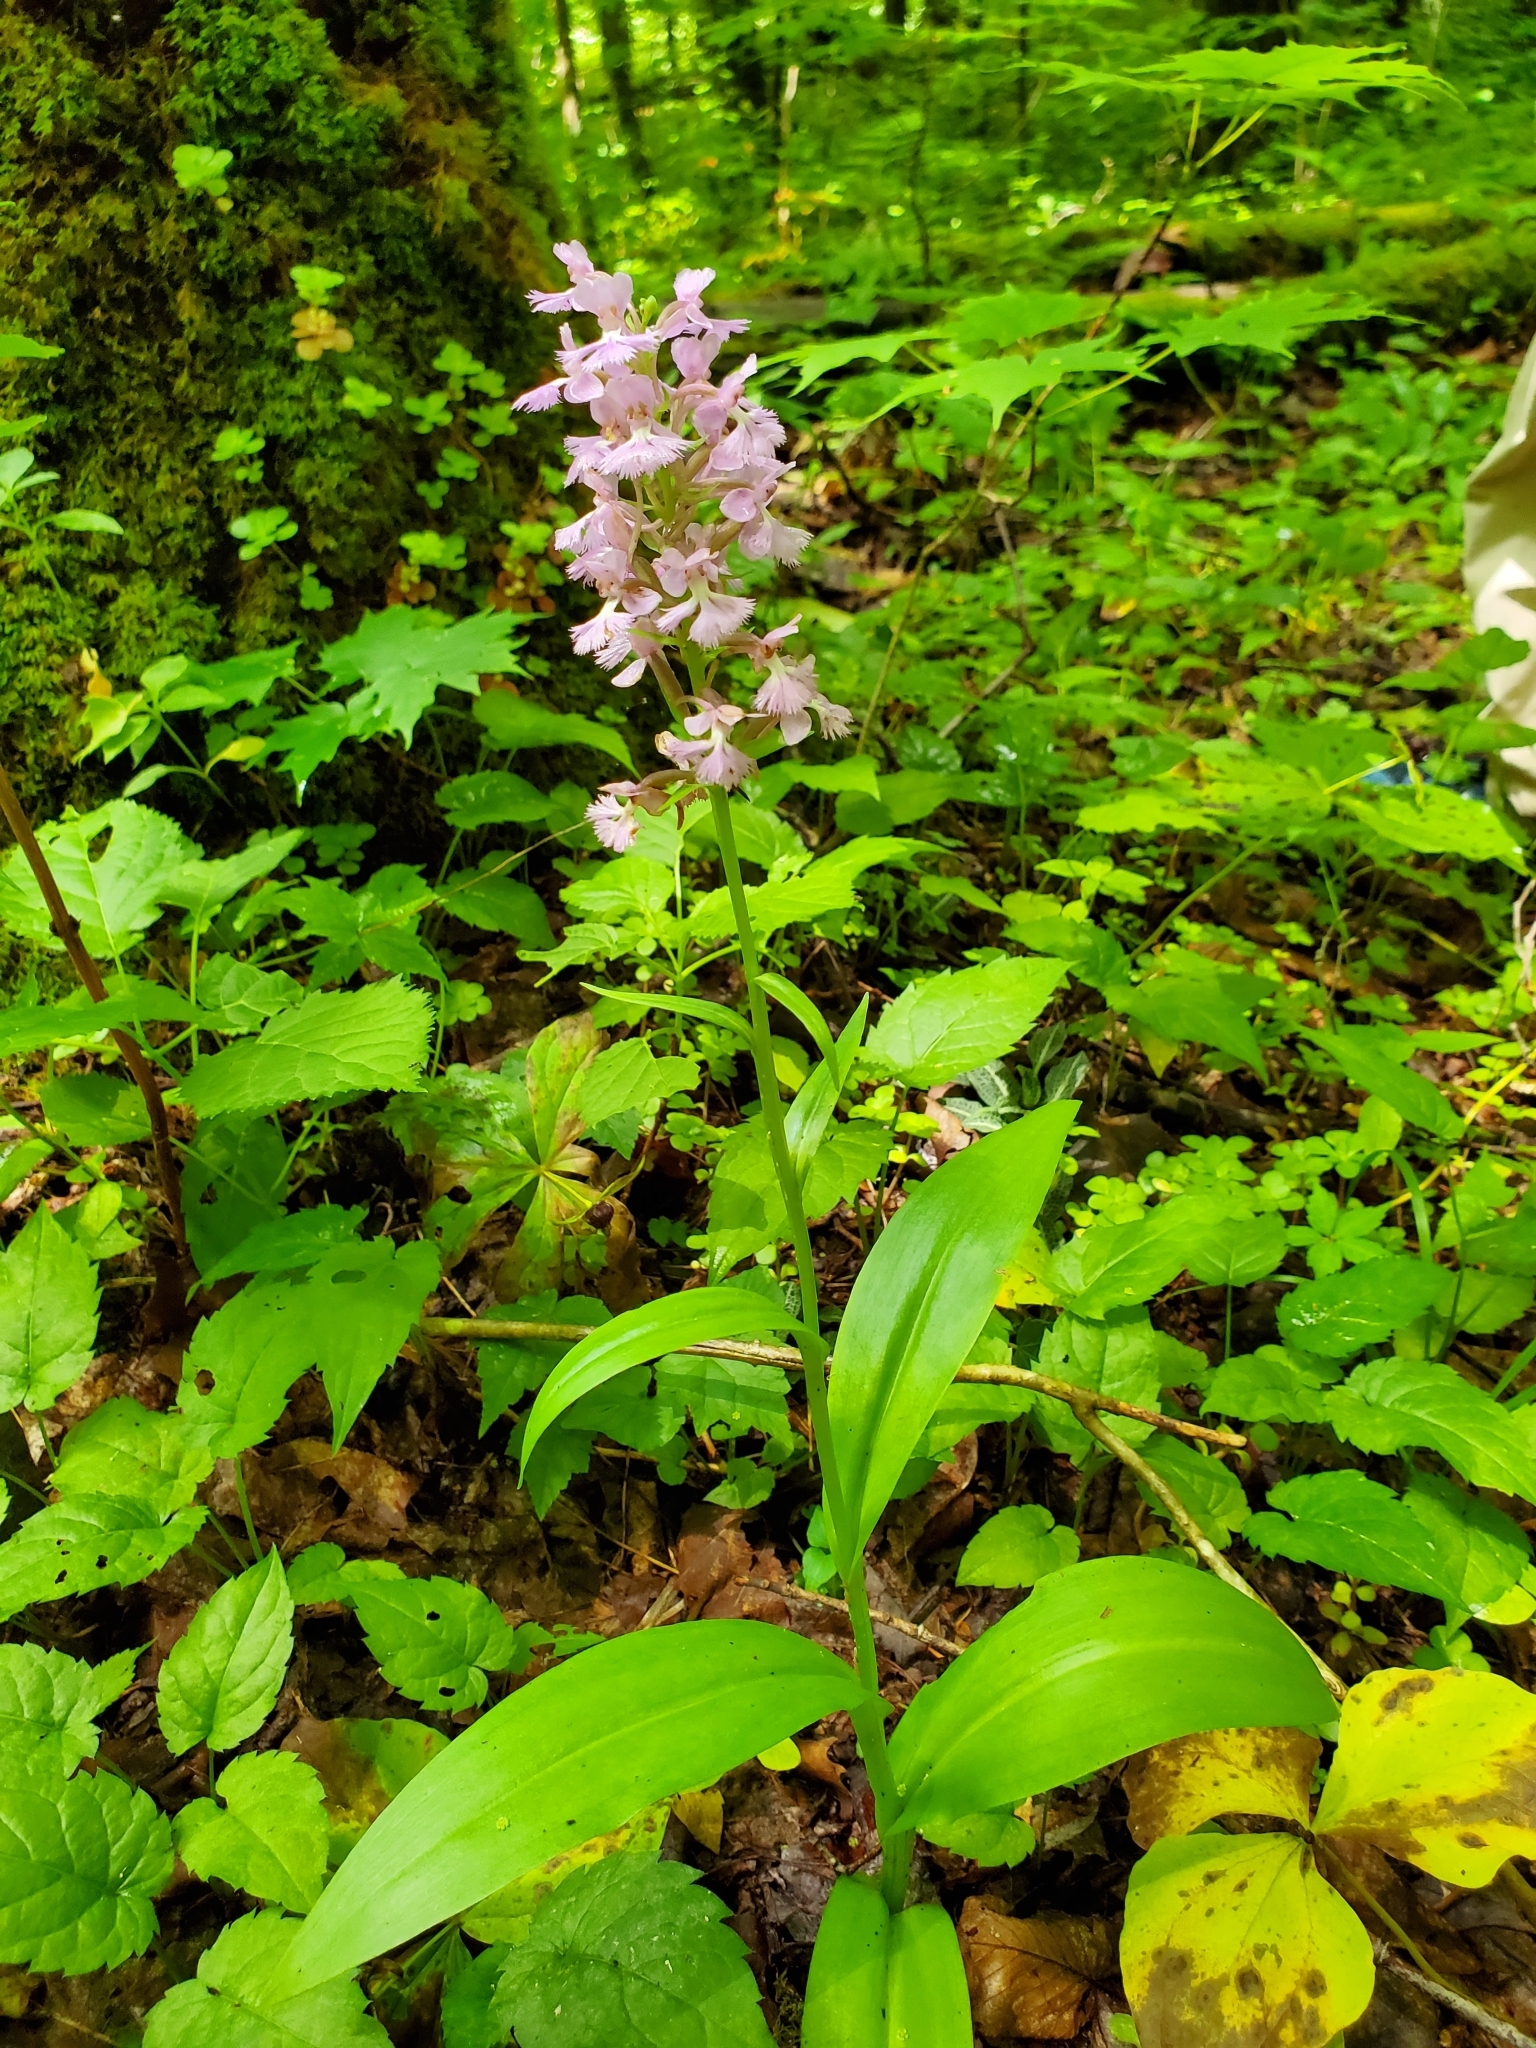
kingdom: Plantae
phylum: Tracheophyta
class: Liliopsida
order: Asparagales
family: Orchidaceae
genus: Platanthera
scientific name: Platanthera psycodes
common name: Lesser purple fringed orchid
